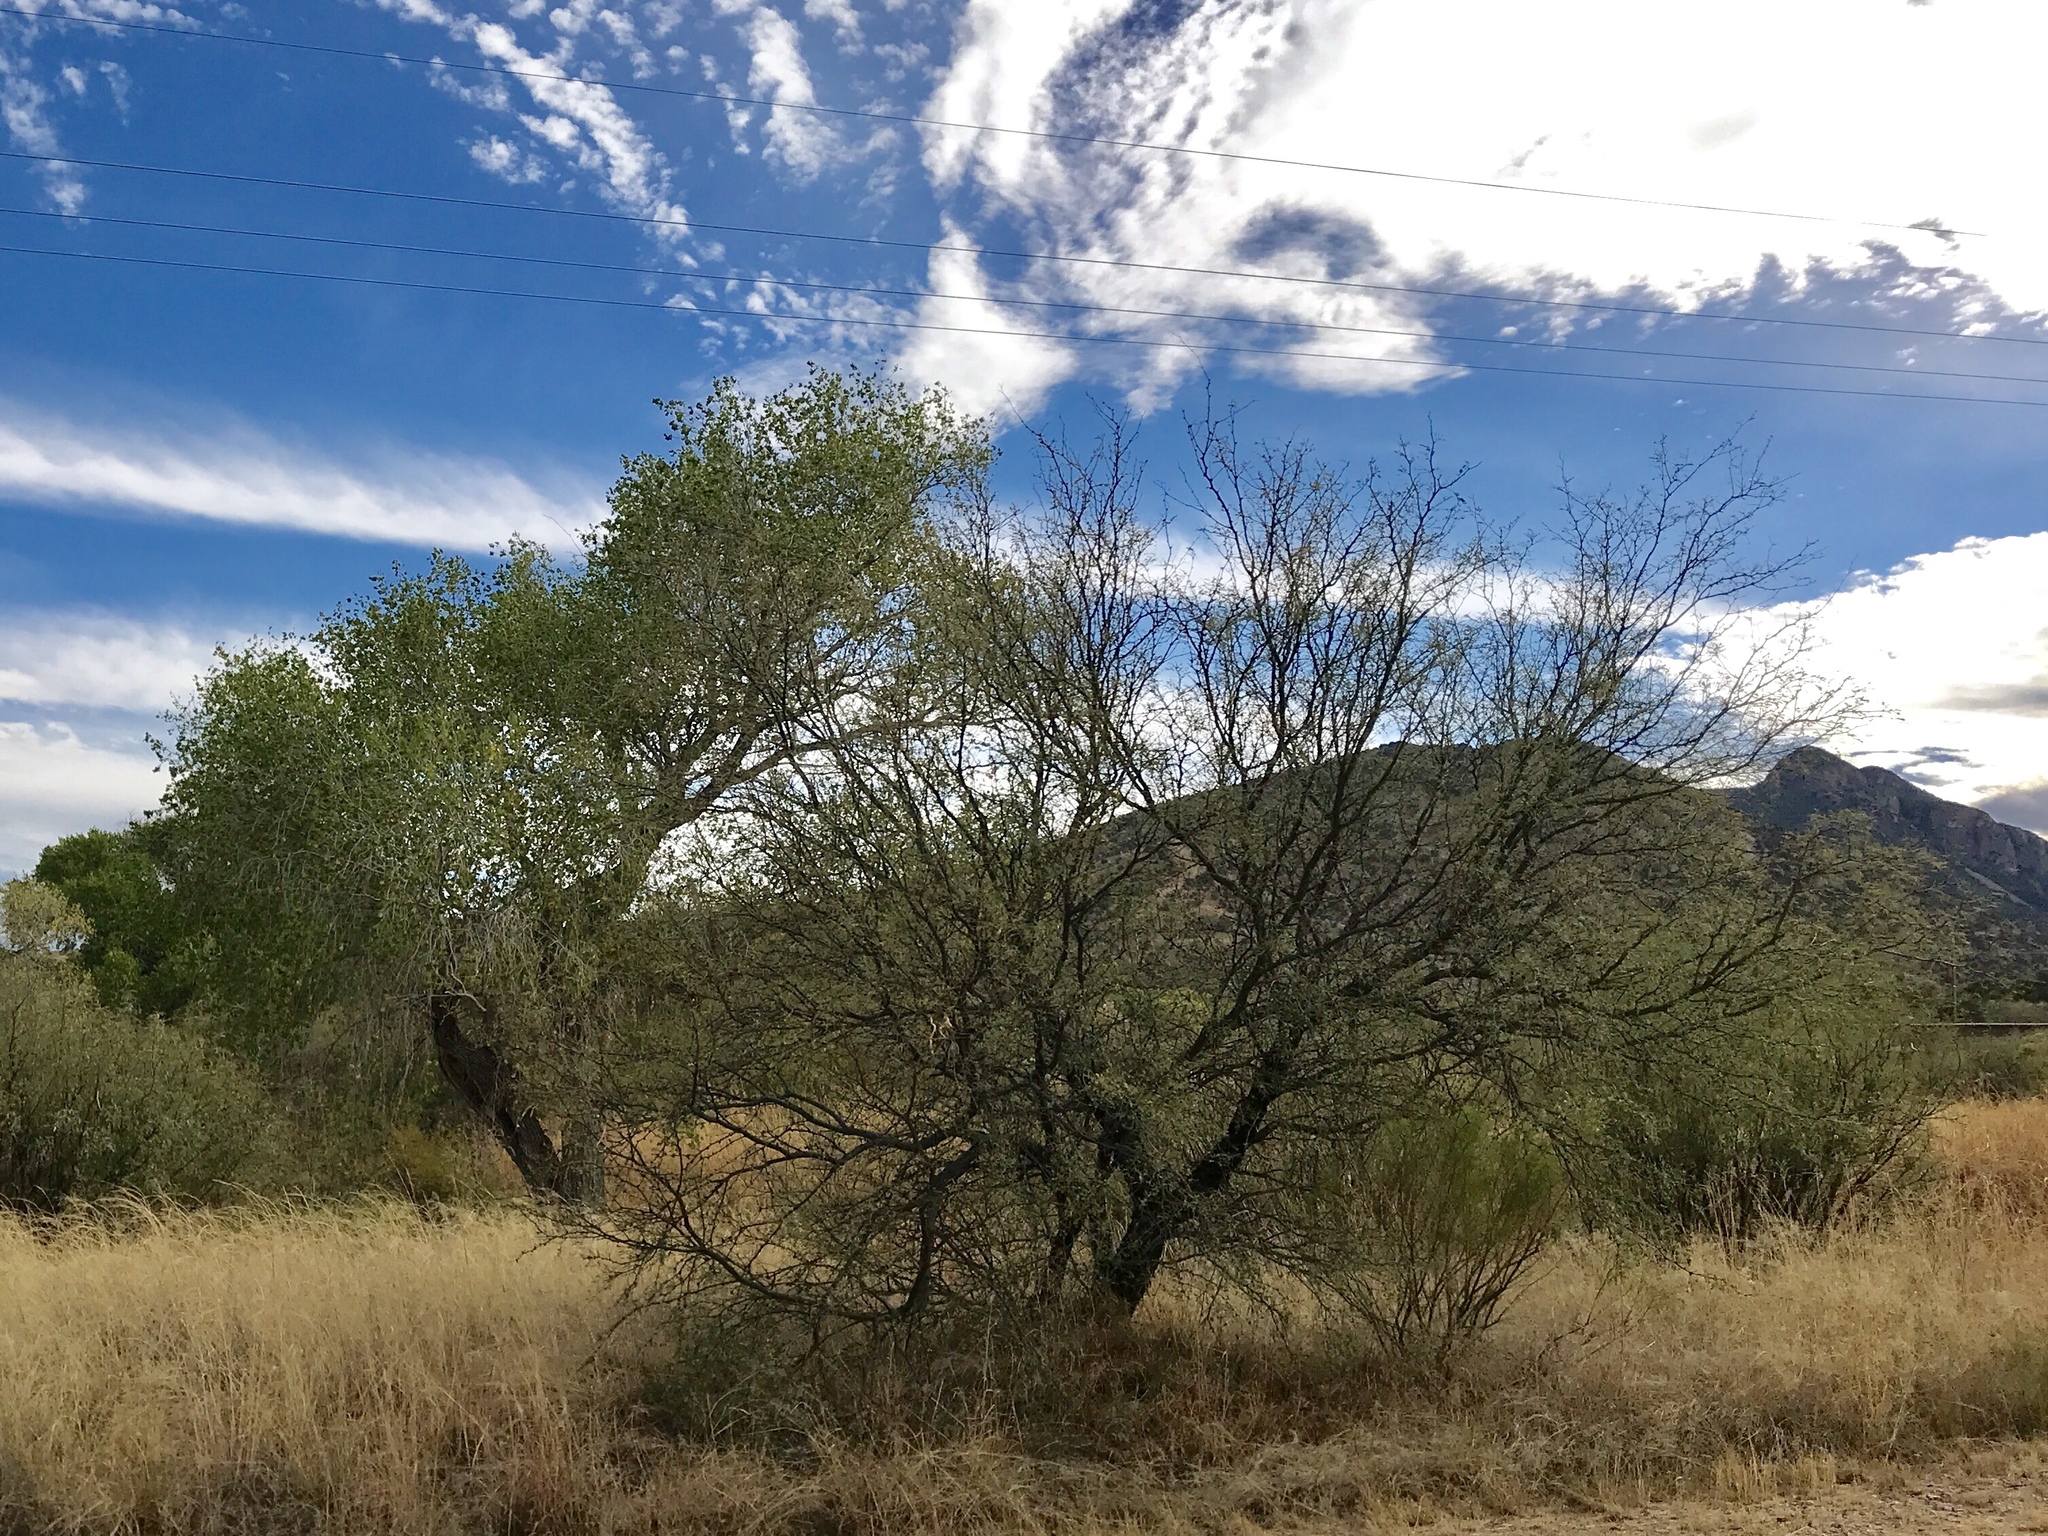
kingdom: Plantae
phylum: Tracheophyta
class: Magnoliopsida
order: Fabales
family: Fabaceae
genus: Prosopis
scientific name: Prosopis velutina
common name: Velvet mesquite
